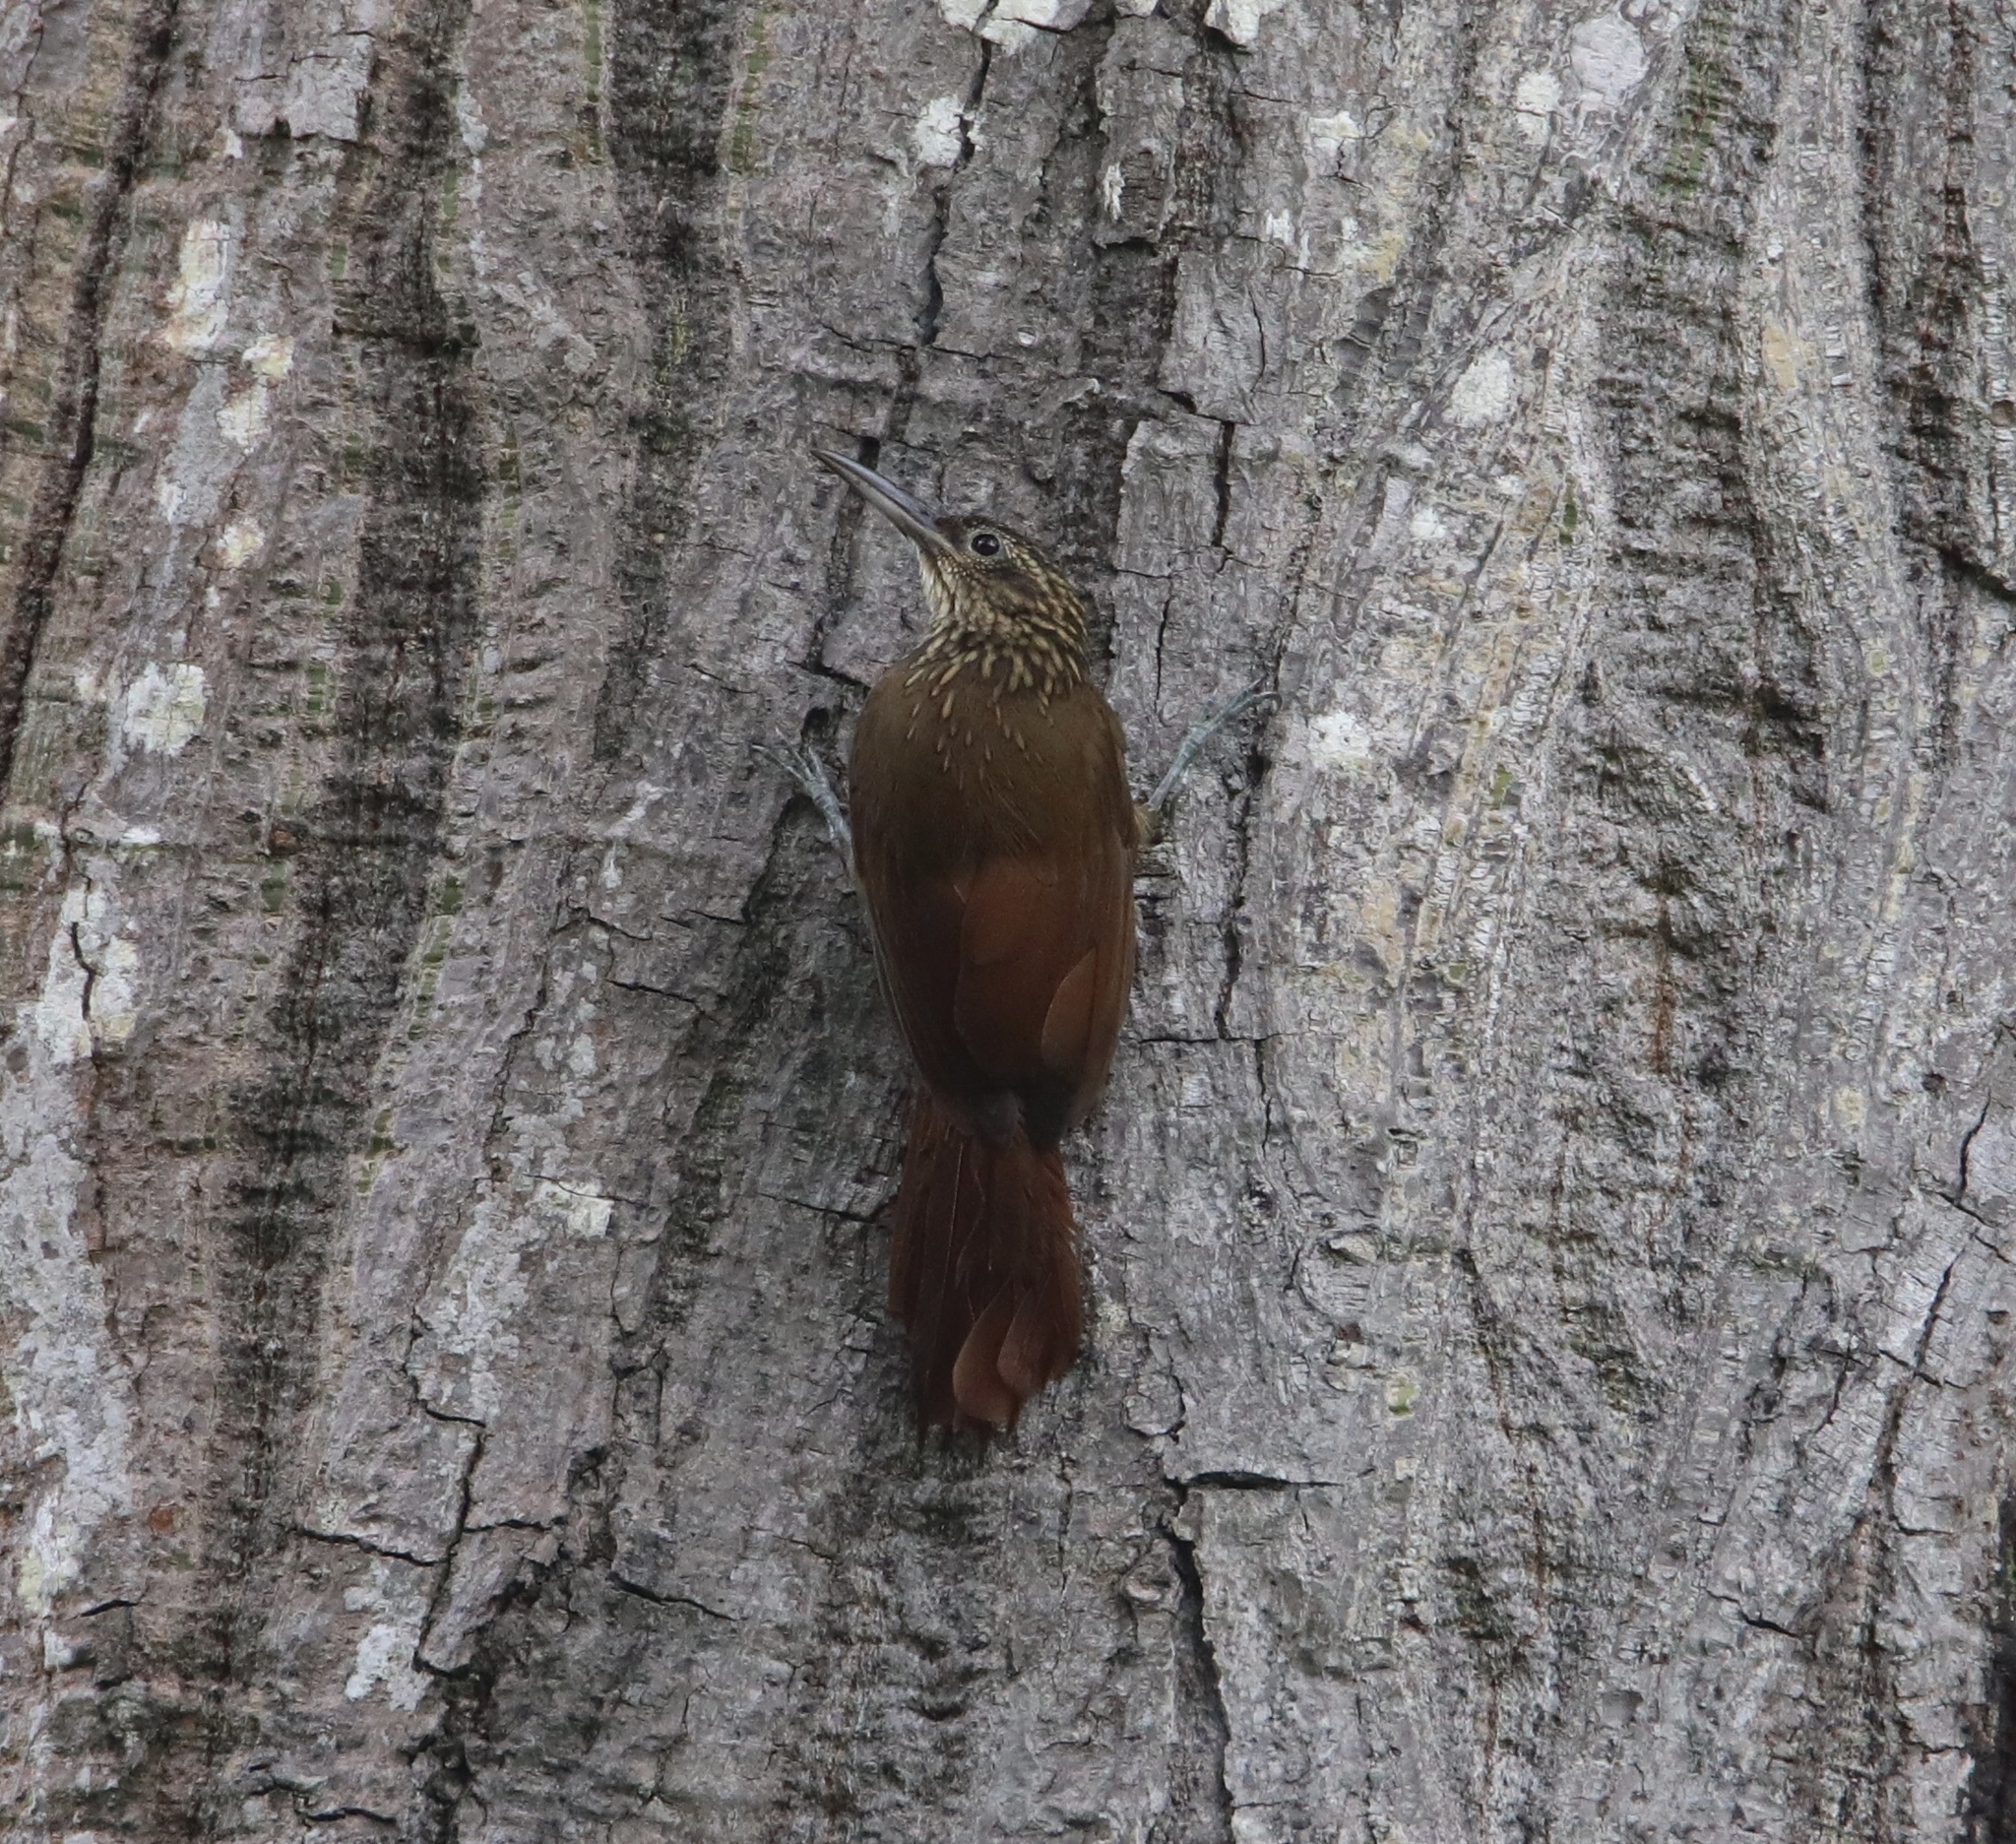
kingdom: Animalia
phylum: Chordata
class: Aves
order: Passeriformes
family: Furnariidae
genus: Xiphorhynchus
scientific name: Xiphorhynchus susurrans
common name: Cocoa woodcreeper
